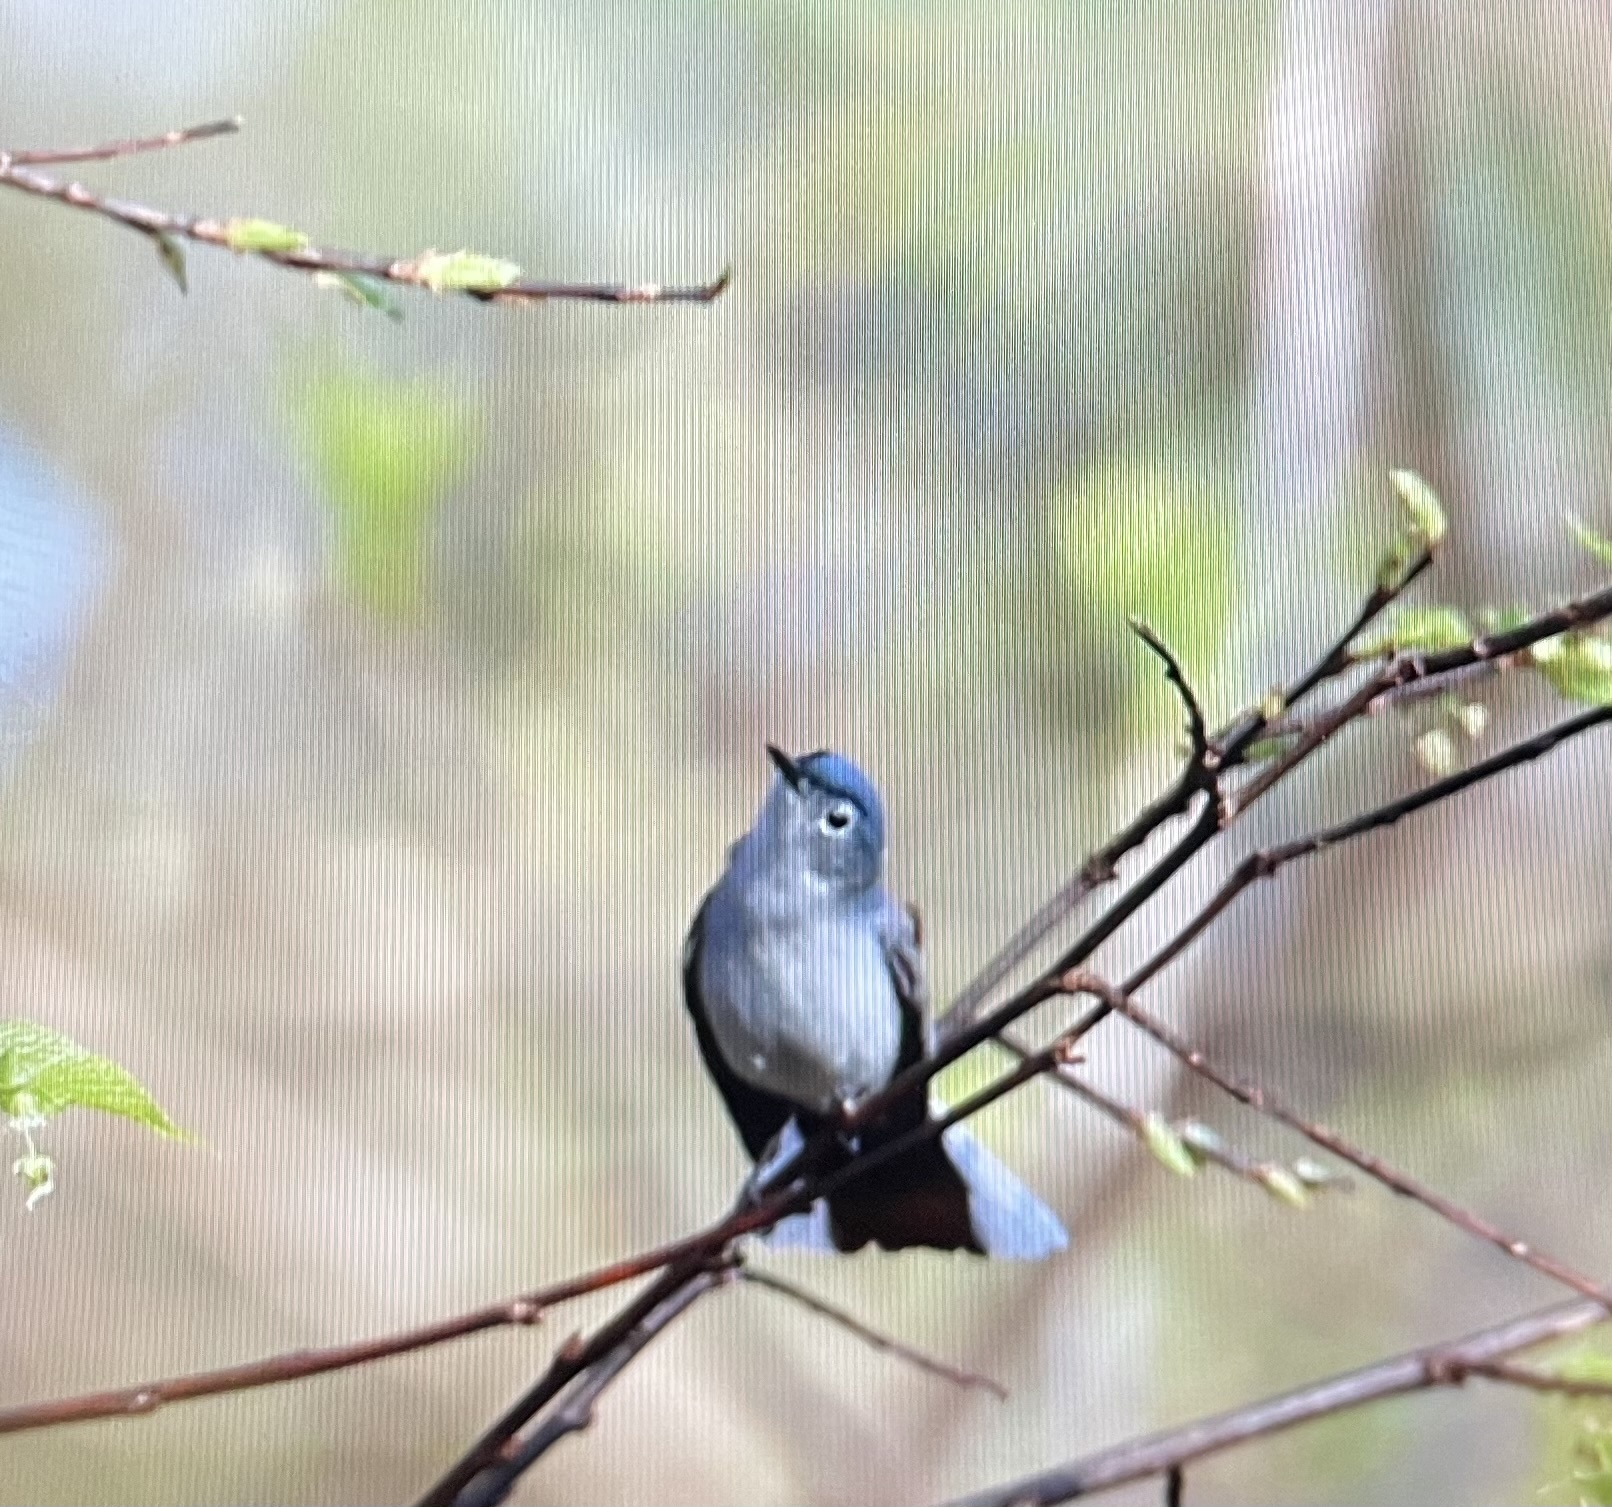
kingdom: Animalia
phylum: Chordata
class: Aves
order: Passeriformes
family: Polioptilidae
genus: Polioptila
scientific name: Polioptila caerulea
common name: Blue-gray gnatcatcher
